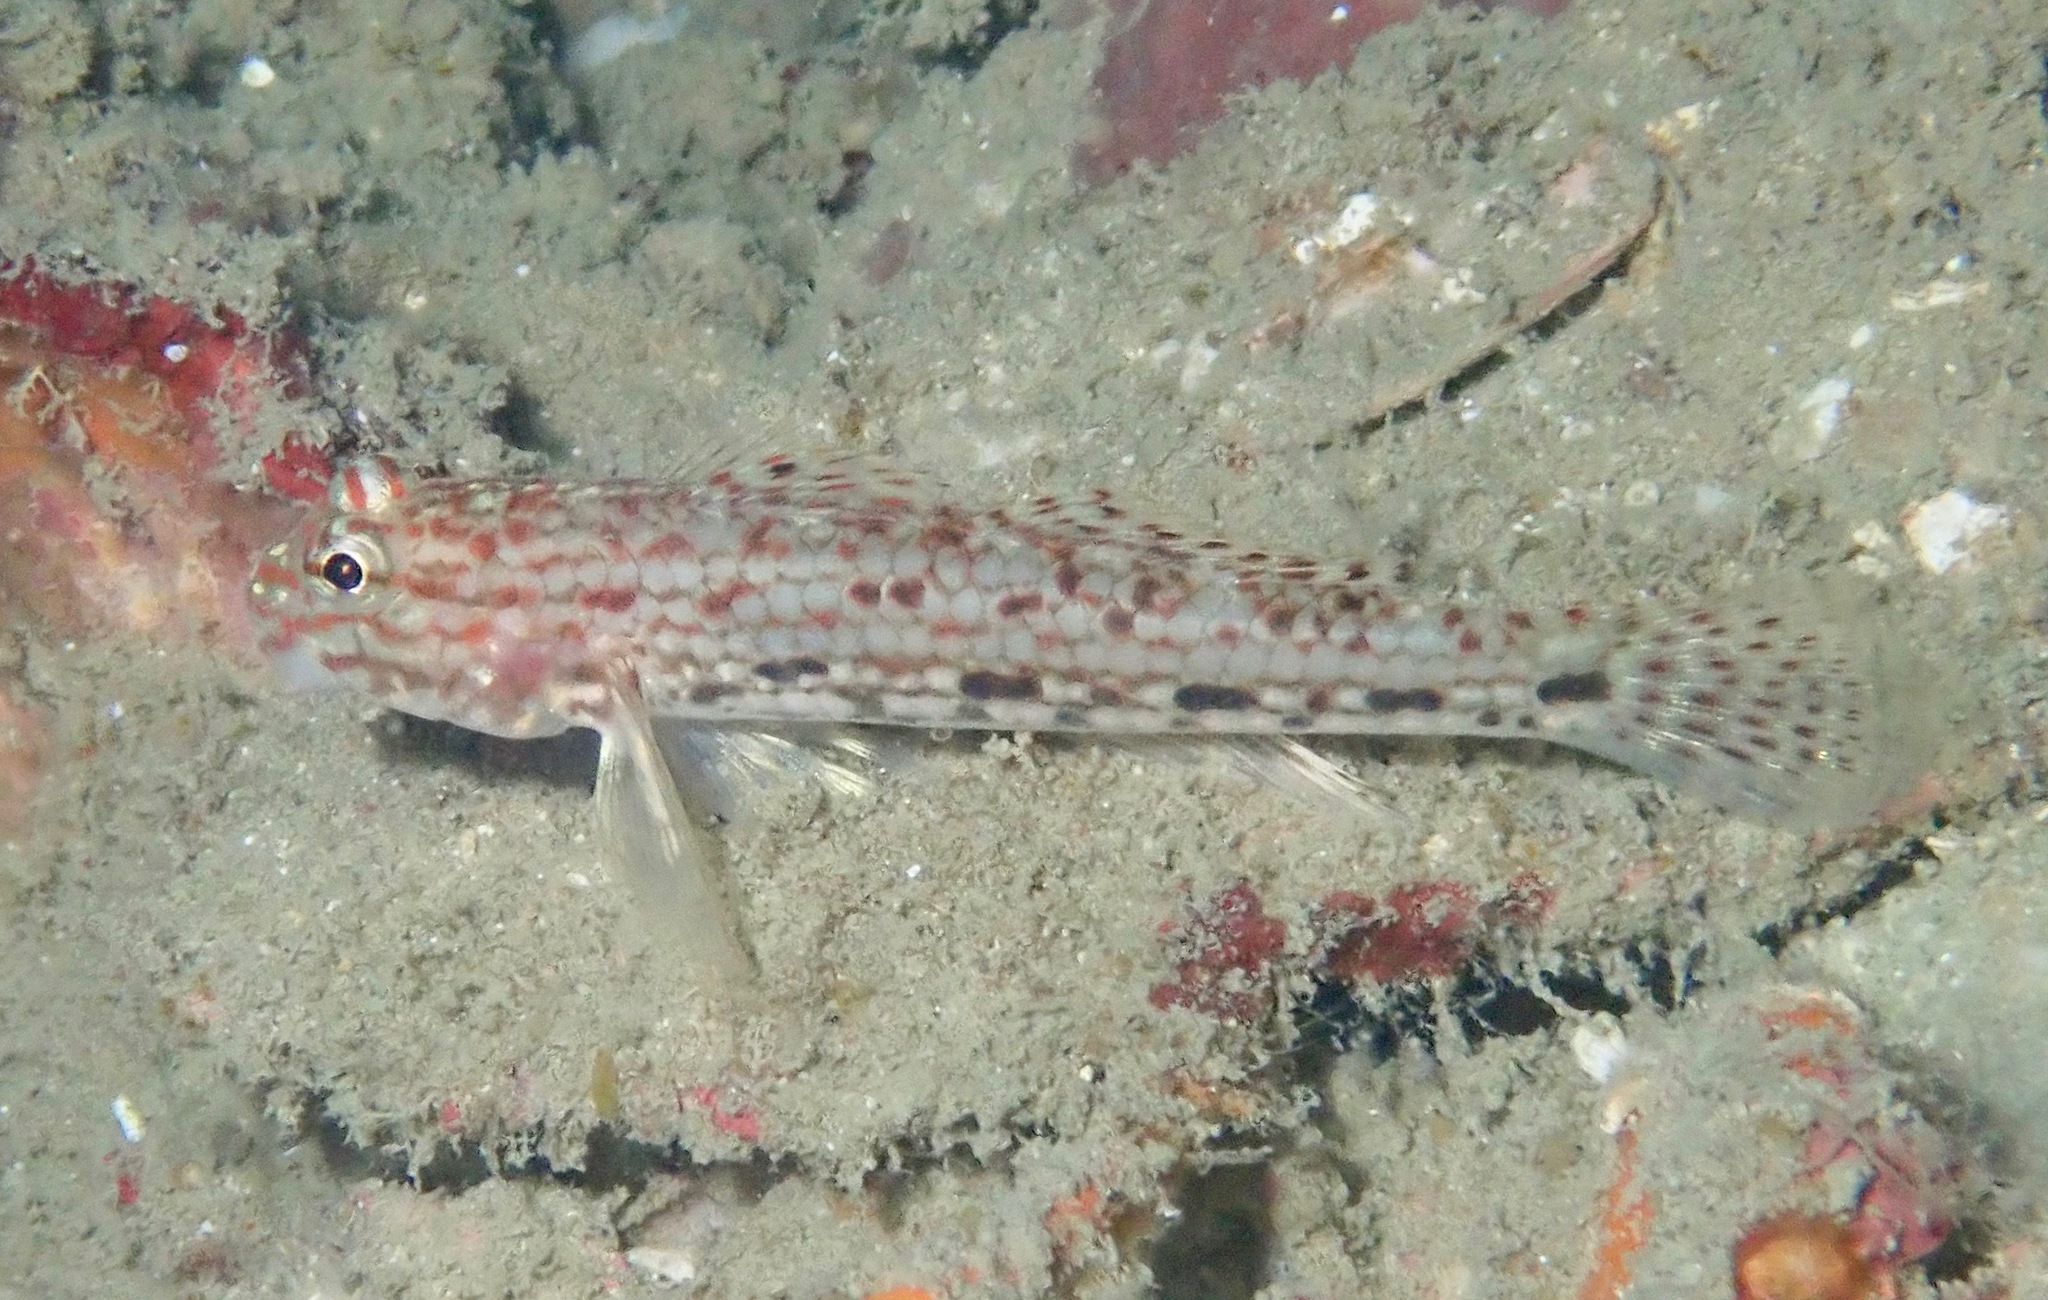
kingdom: Animalia
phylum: Chordata
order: Perciformes
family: Gobiidae
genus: Istigobius
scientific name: Istigobius decoratus
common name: Decorated goby
